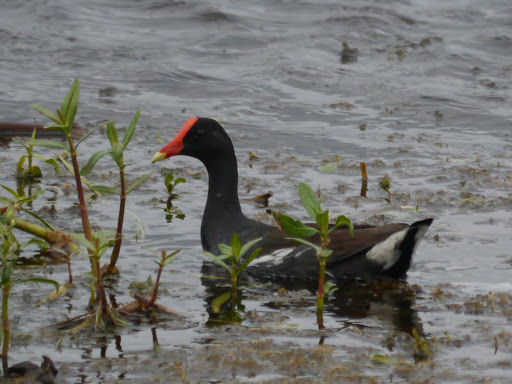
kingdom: Animalia
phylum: Chordata
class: Aves
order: Gruiformes
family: Rallidae
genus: Gallinula
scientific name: Gallinula chloropus
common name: Common moorhen
